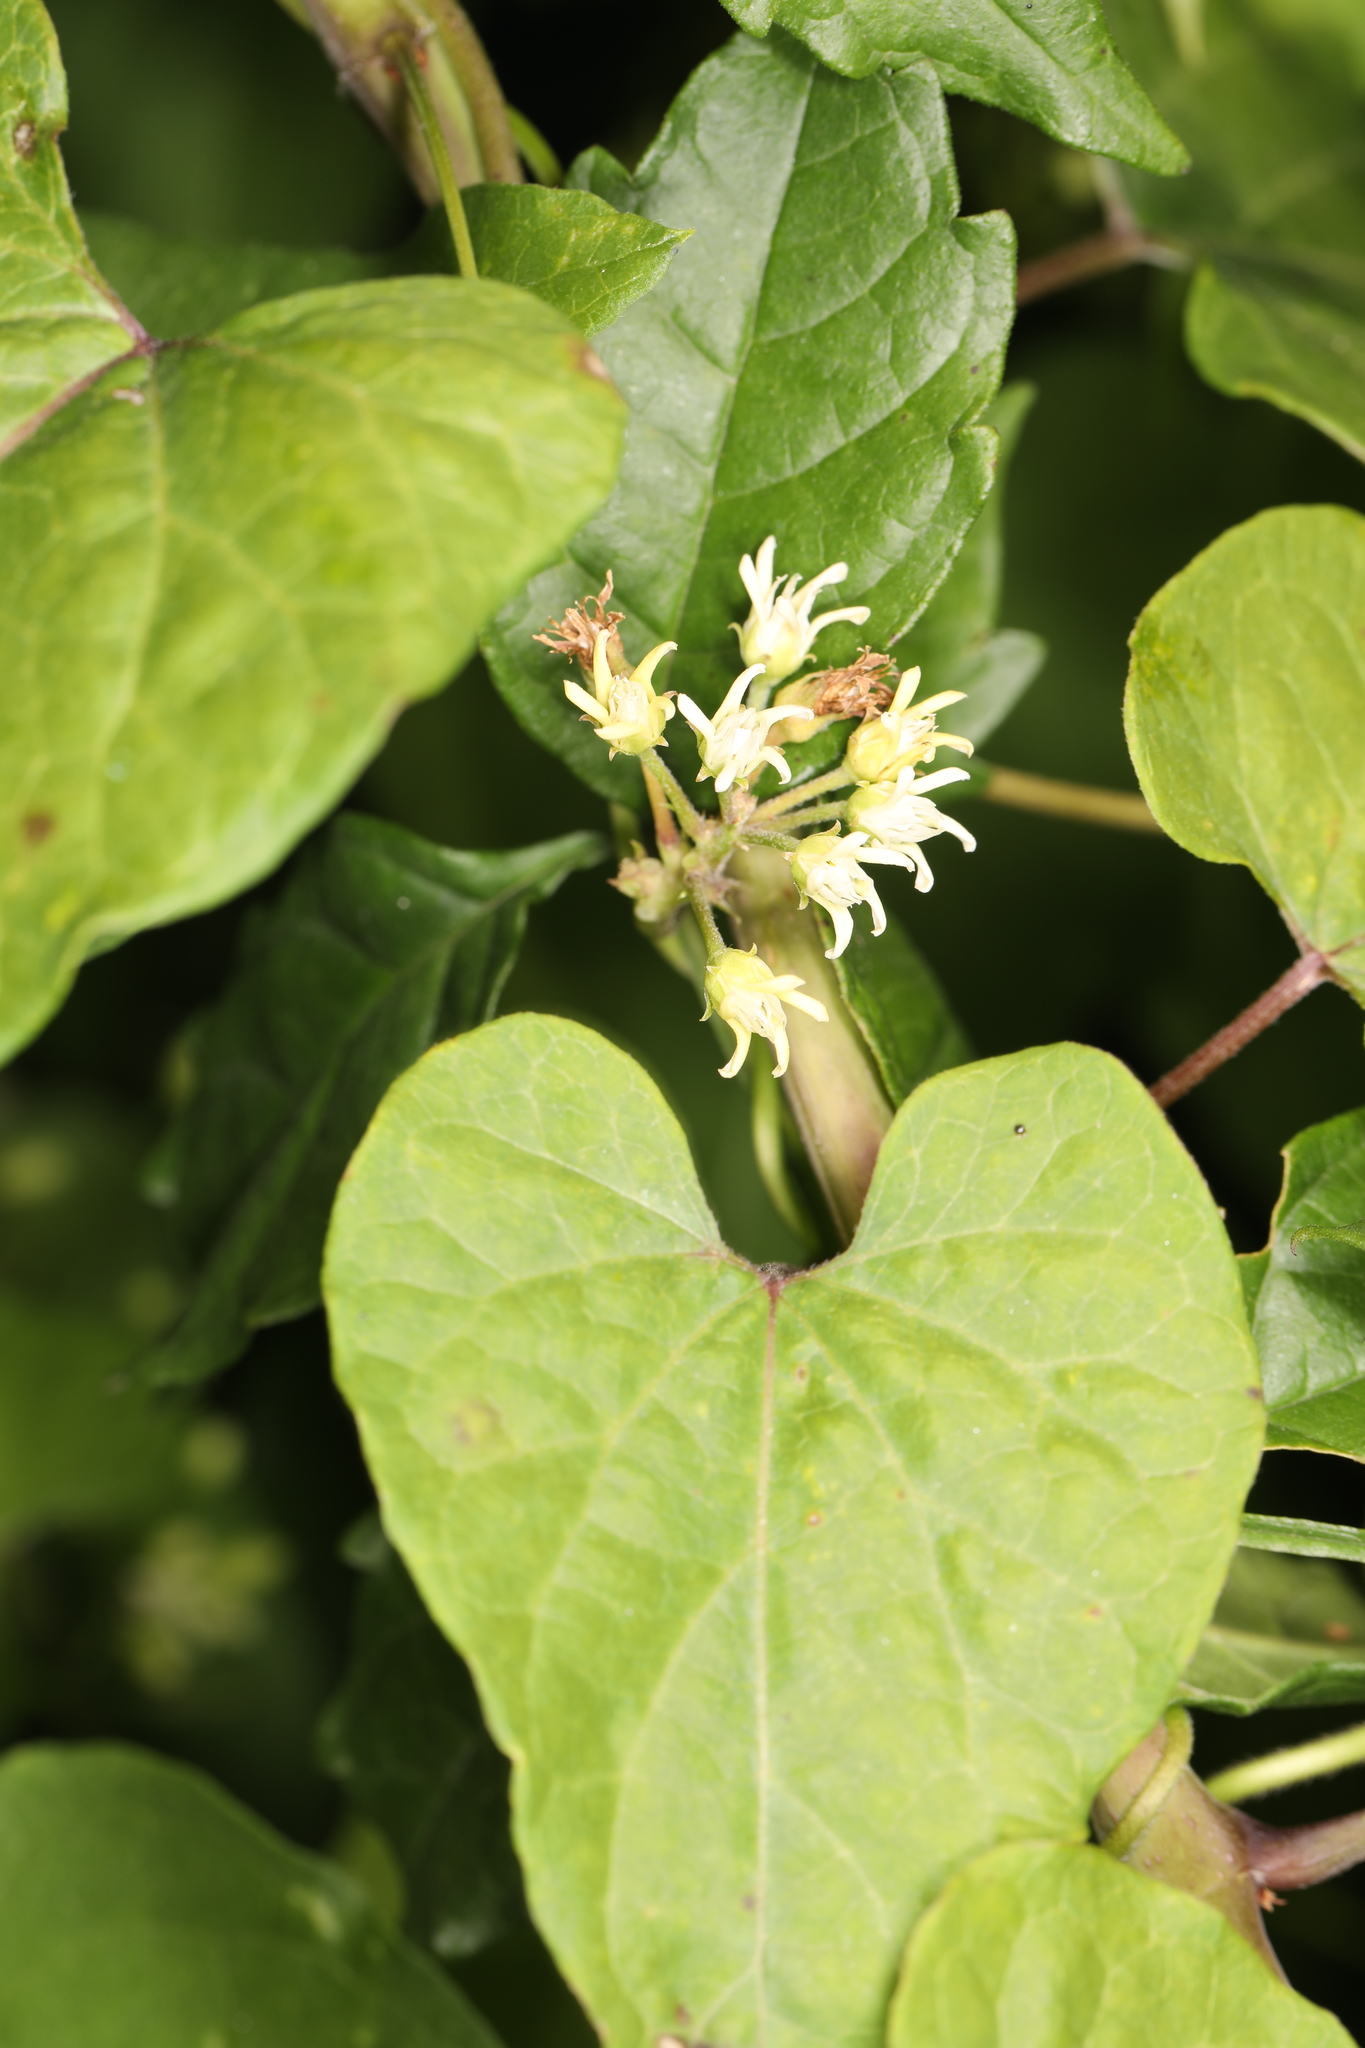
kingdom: Plantae
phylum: Tracheophyta
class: Magnoliopsida
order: Gentianales
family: Apocynaceae
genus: Cynanchum
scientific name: Cynanchum laeve
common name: Sandvine
